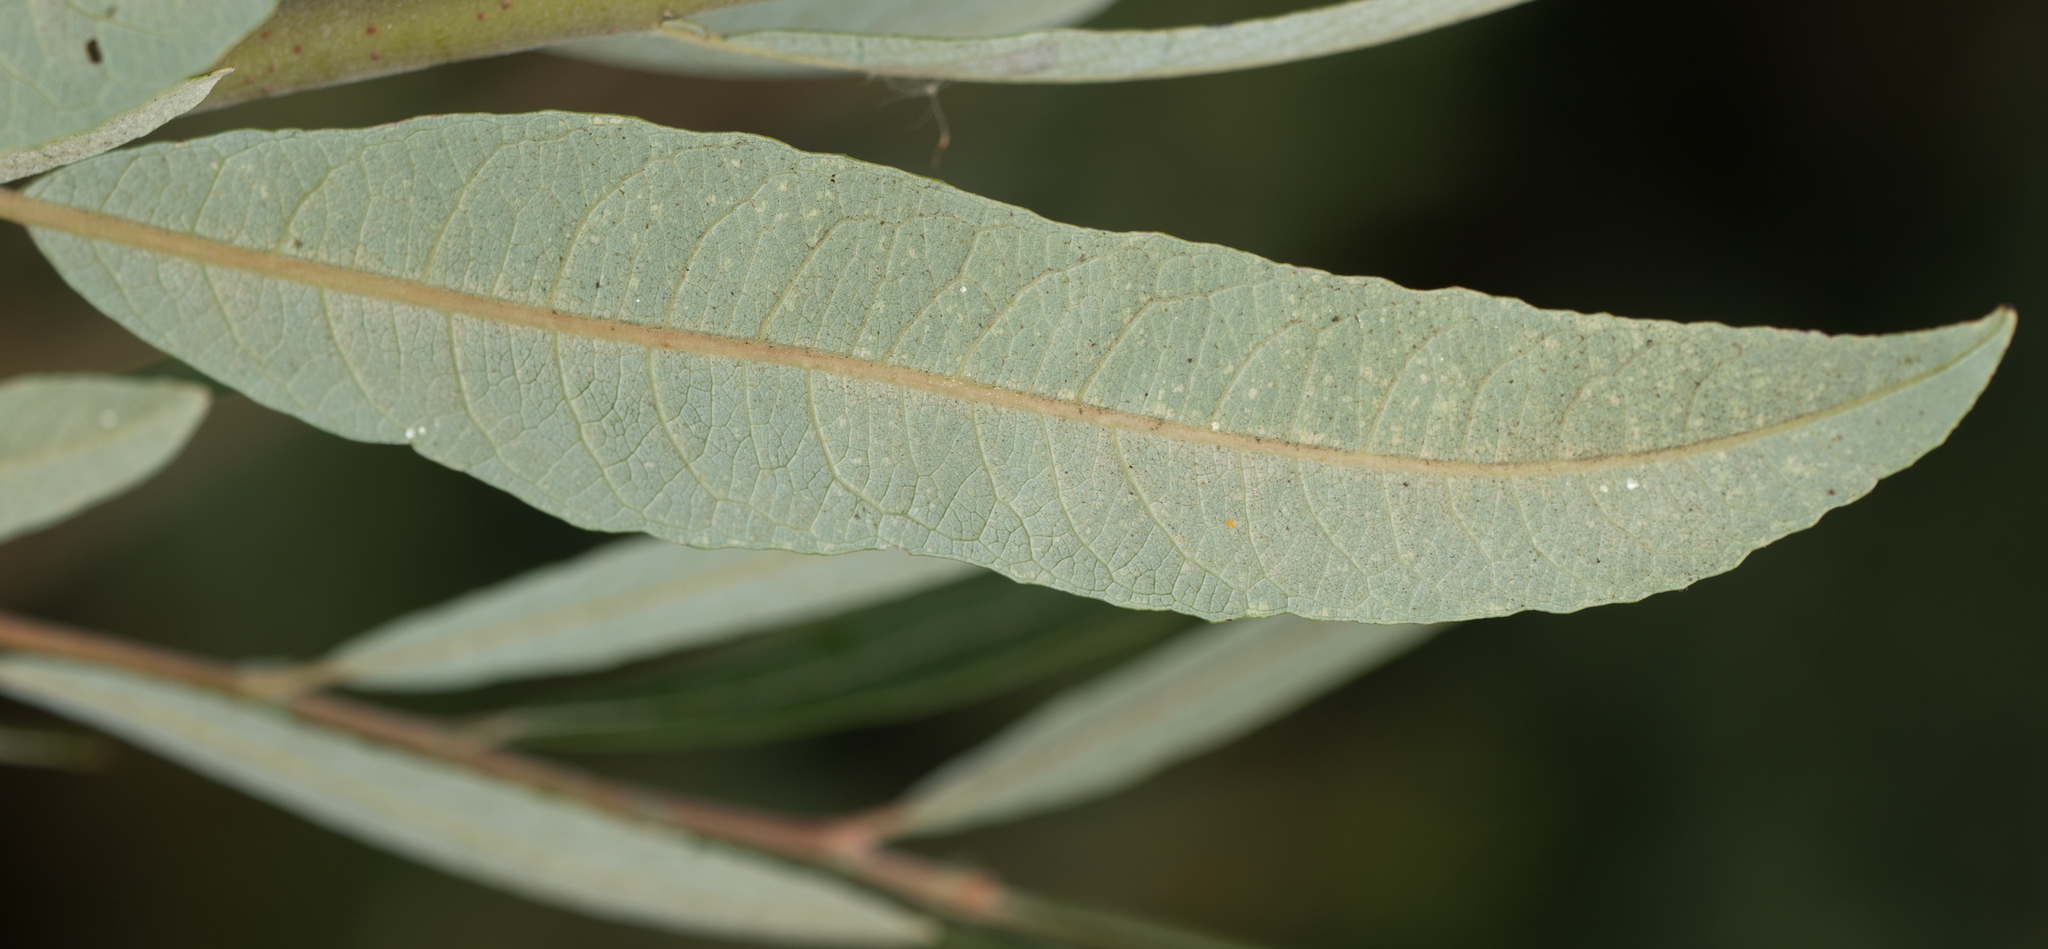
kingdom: Plantae
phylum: Tracheophyta
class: Magnoliopsida
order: Malpighiales
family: Salicaceae
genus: Salix
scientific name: Salix lasiolepis
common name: Arroyo willow
